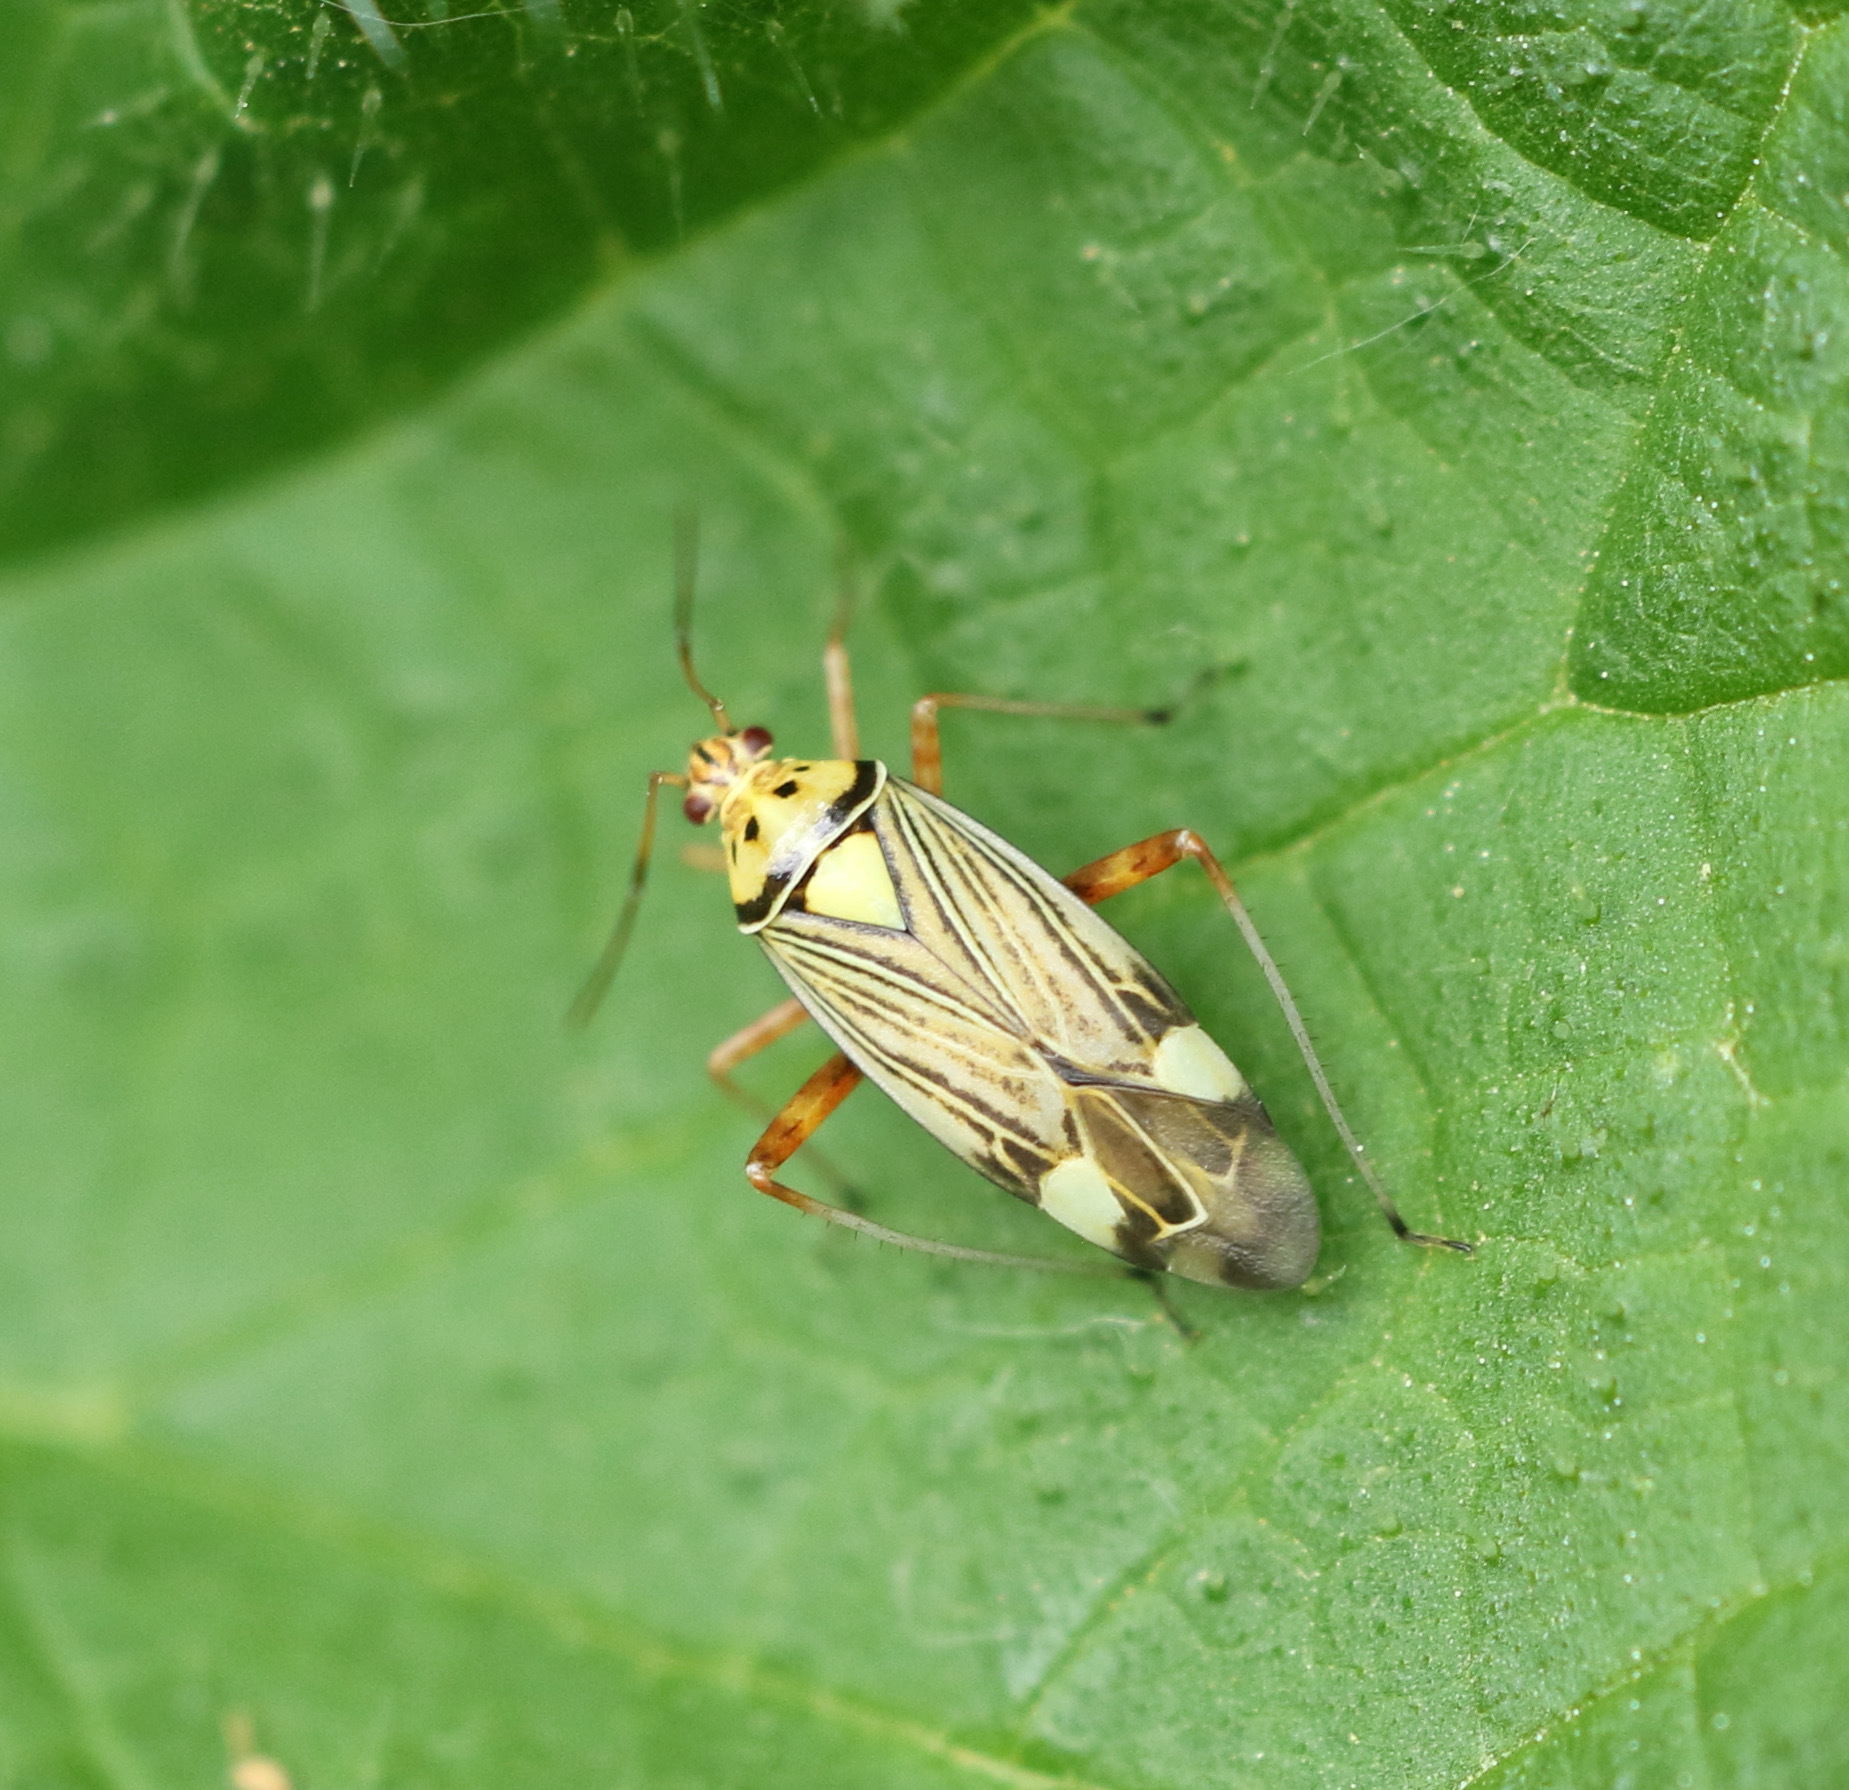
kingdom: Animalia
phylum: Arthropoda
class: Insecta
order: Hemiptera
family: Miridae
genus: Rhabdomiris
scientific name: Rhabdomiris striatellus
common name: Plant bug
